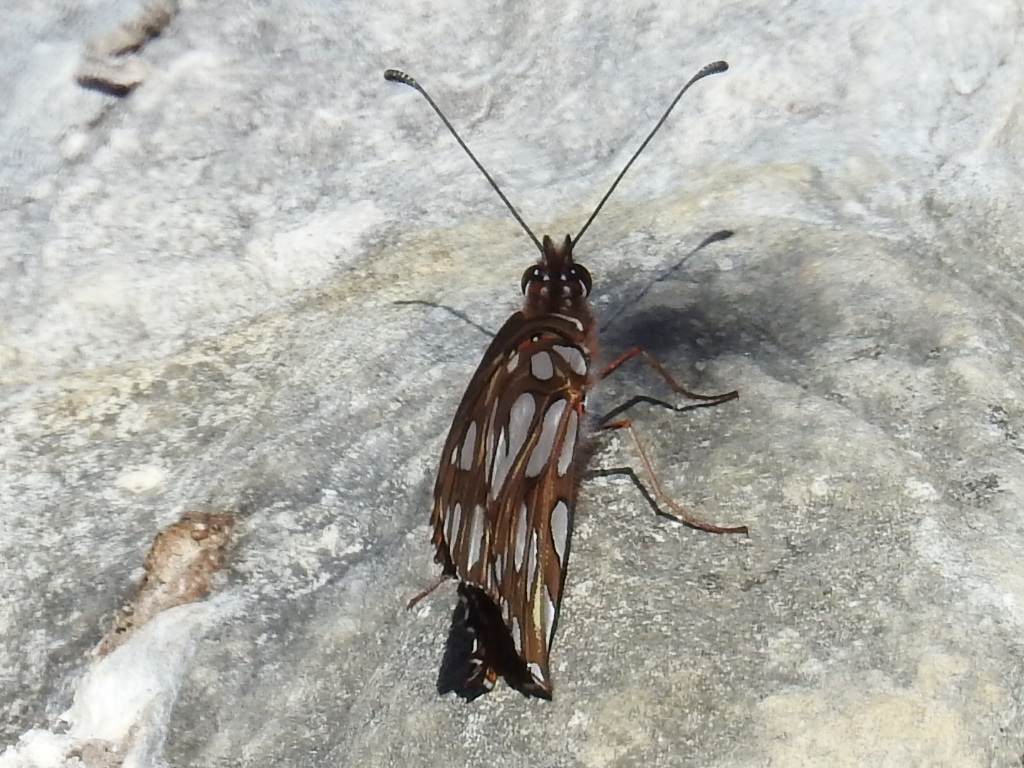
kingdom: Animalia
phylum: Arthropoda
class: Insecta
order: Lepidoptera
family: Nymphalidae
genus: Dione
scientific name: Dione vanillae
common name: Gulf fritillary
